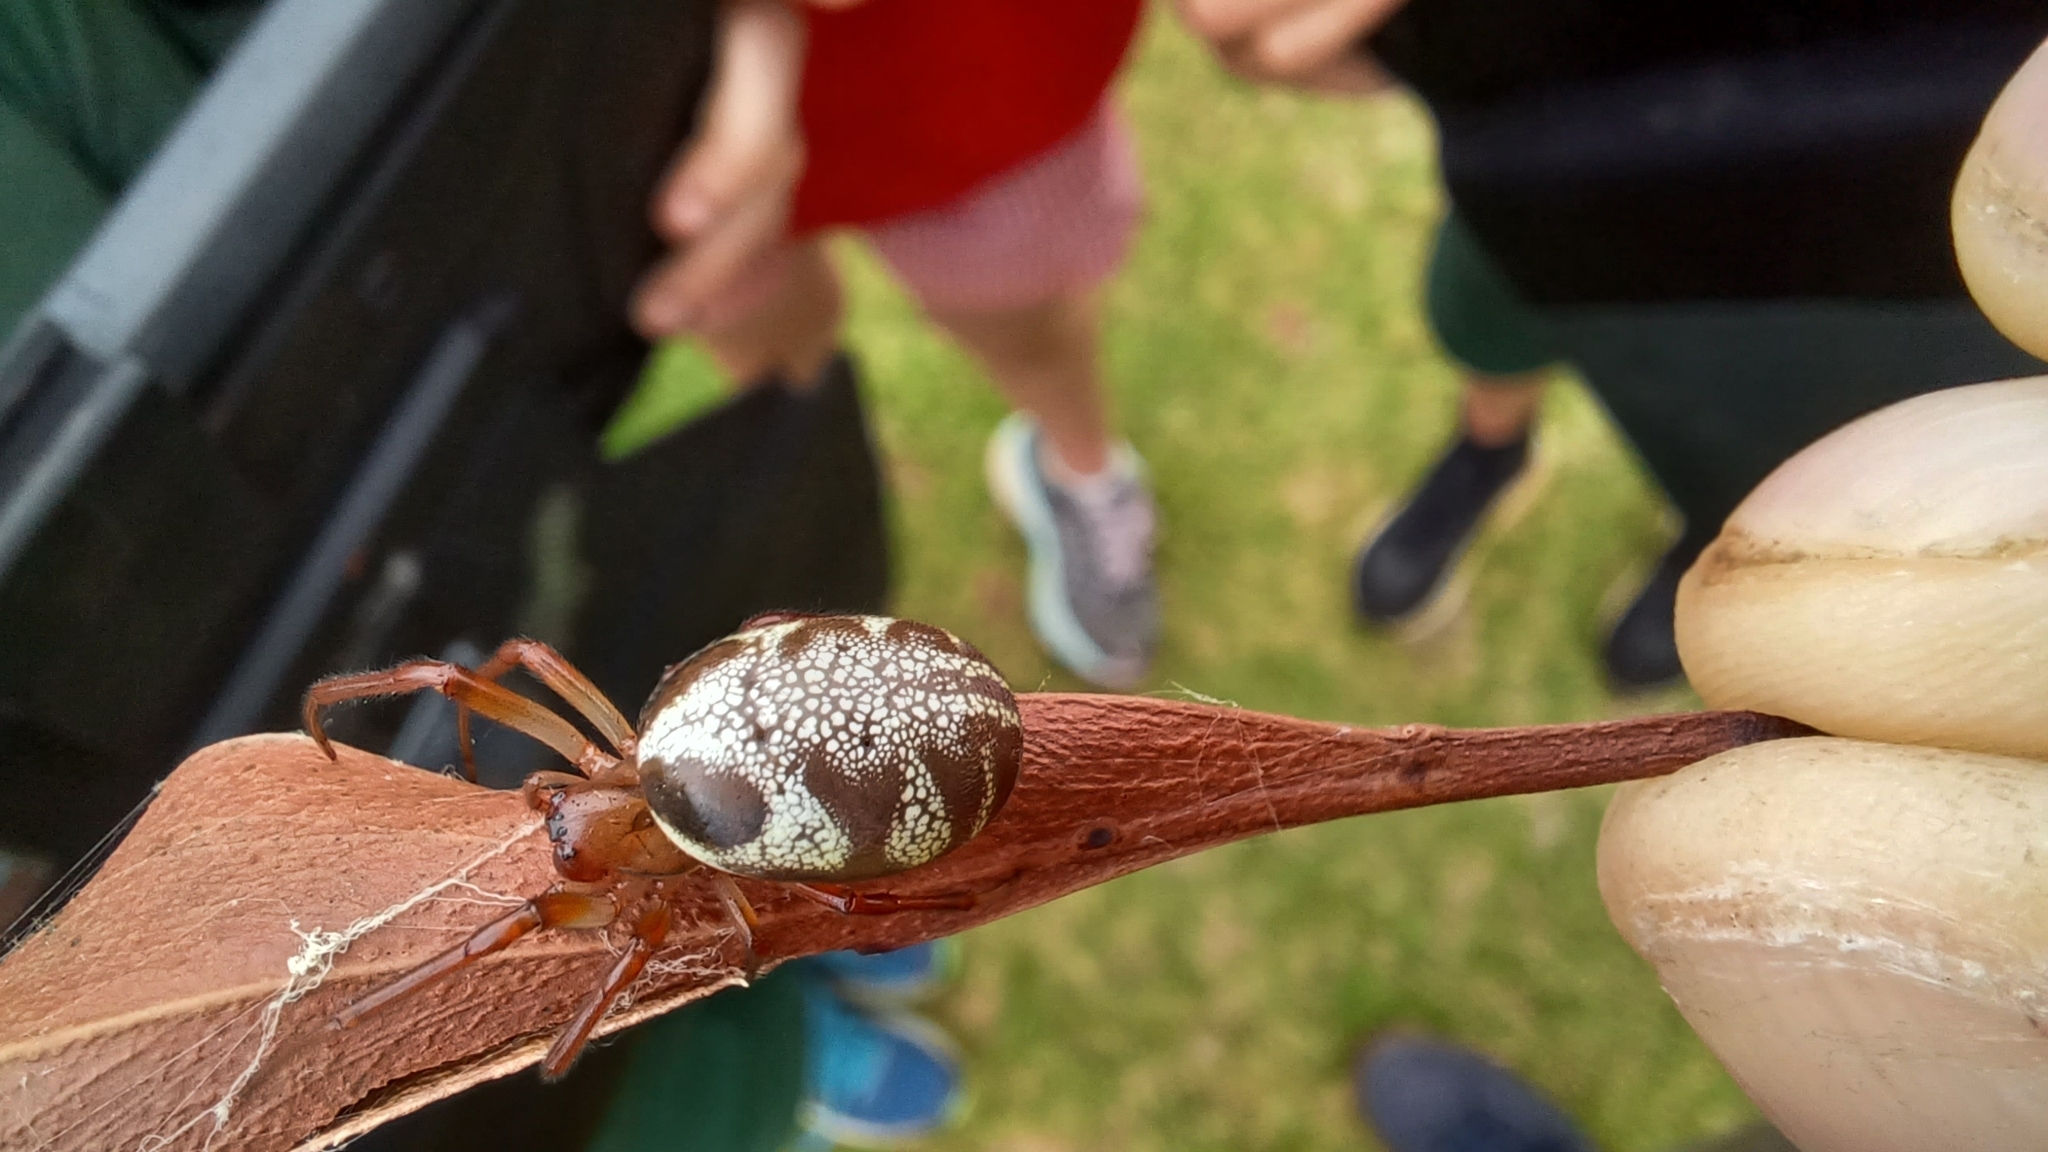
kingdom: Animalia
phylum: Arthropoda
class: Arachnida
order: Araneae
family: Araneidae
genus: Phonognatha
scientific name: Phonognatha graeffei
